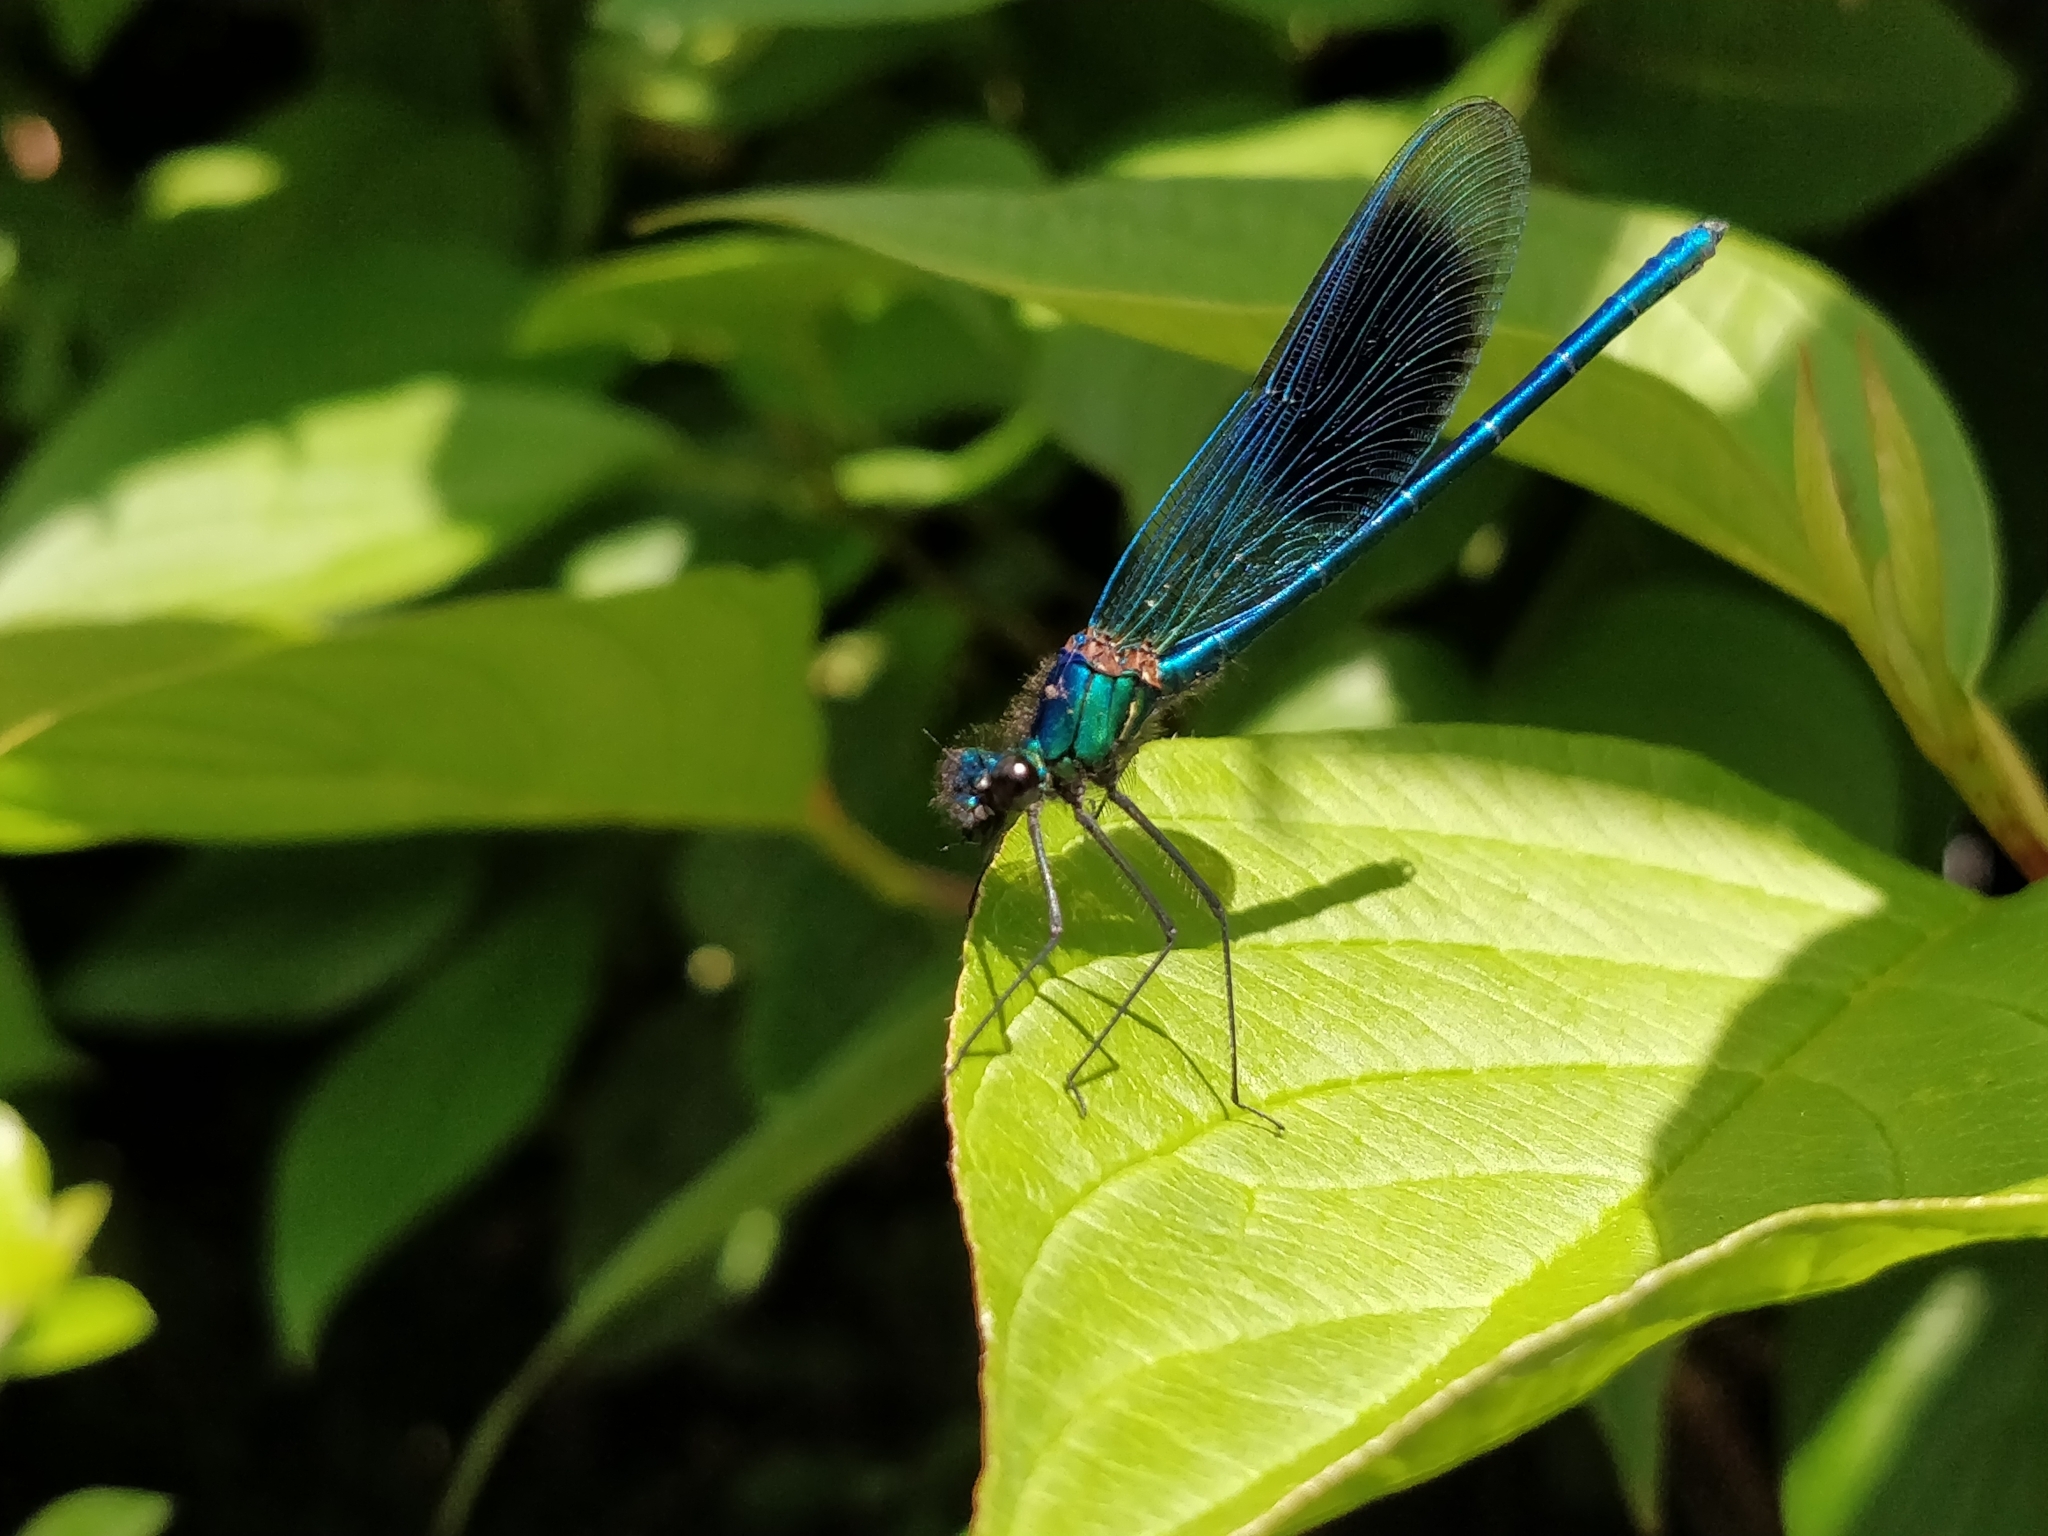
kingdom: Animalia
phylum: Arthropoda
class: Insecta
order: Odonata
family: Calopterygidae
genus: Calopteryx
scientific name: Calopteryx splendens
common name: Banded demoiselle
